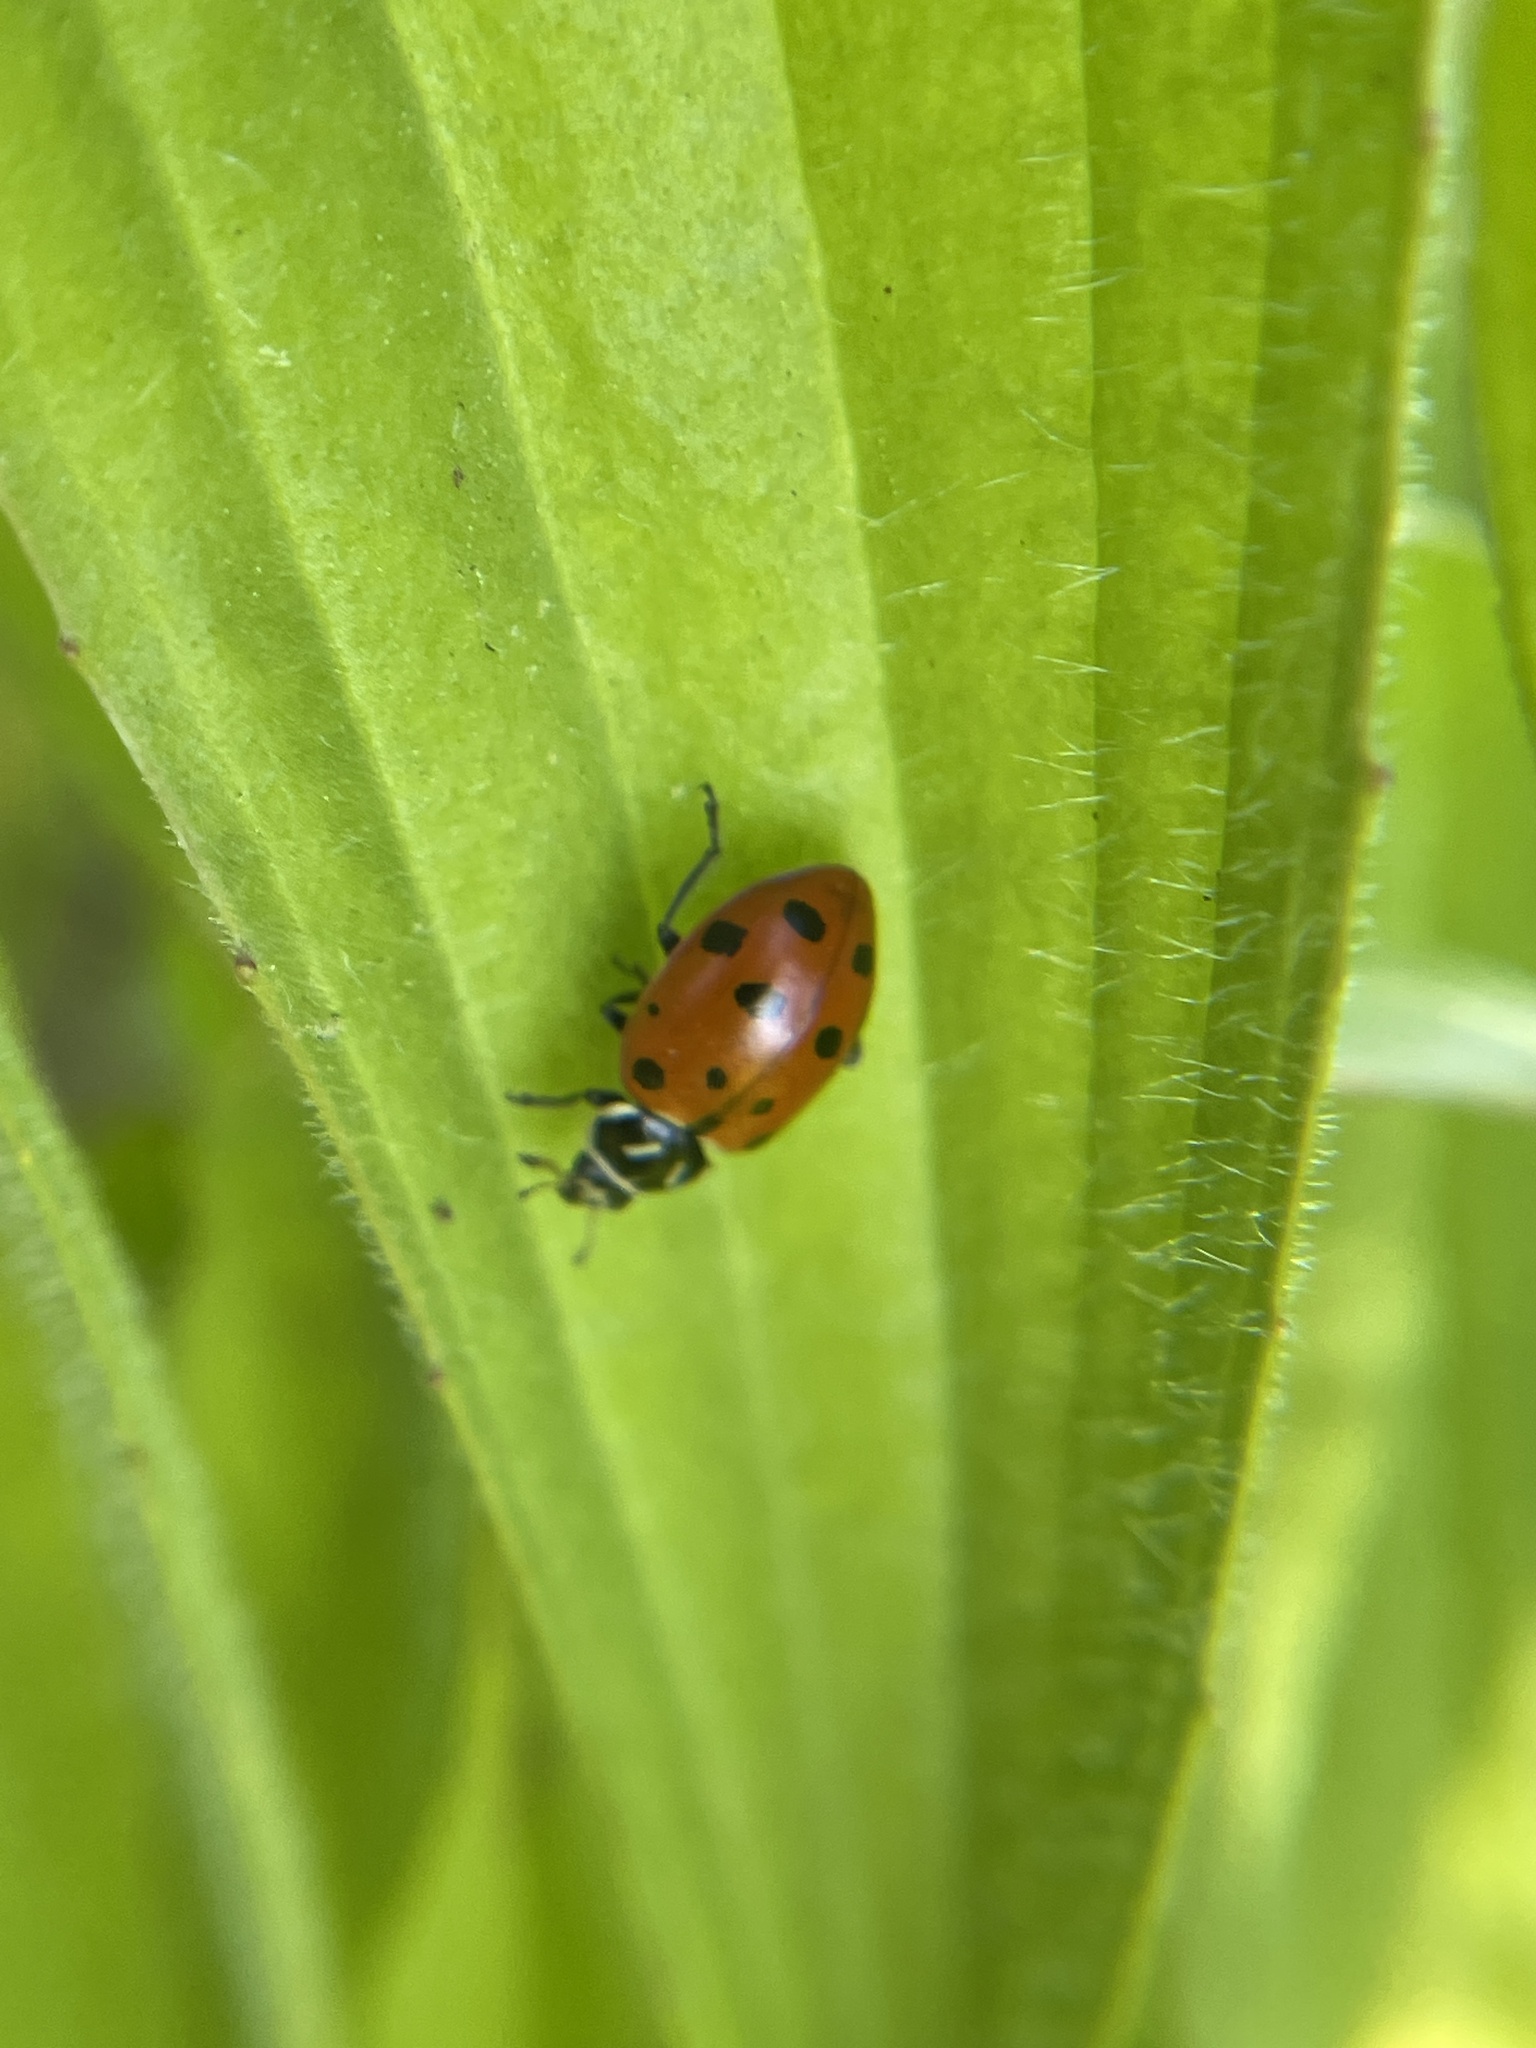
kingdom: Animalia
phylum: Arthropoda
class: Insecta
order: Coleoptera
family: Coccinellidae
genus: Hippodamia
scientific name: Hippodamia convergens
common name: Convergent lady beetle
